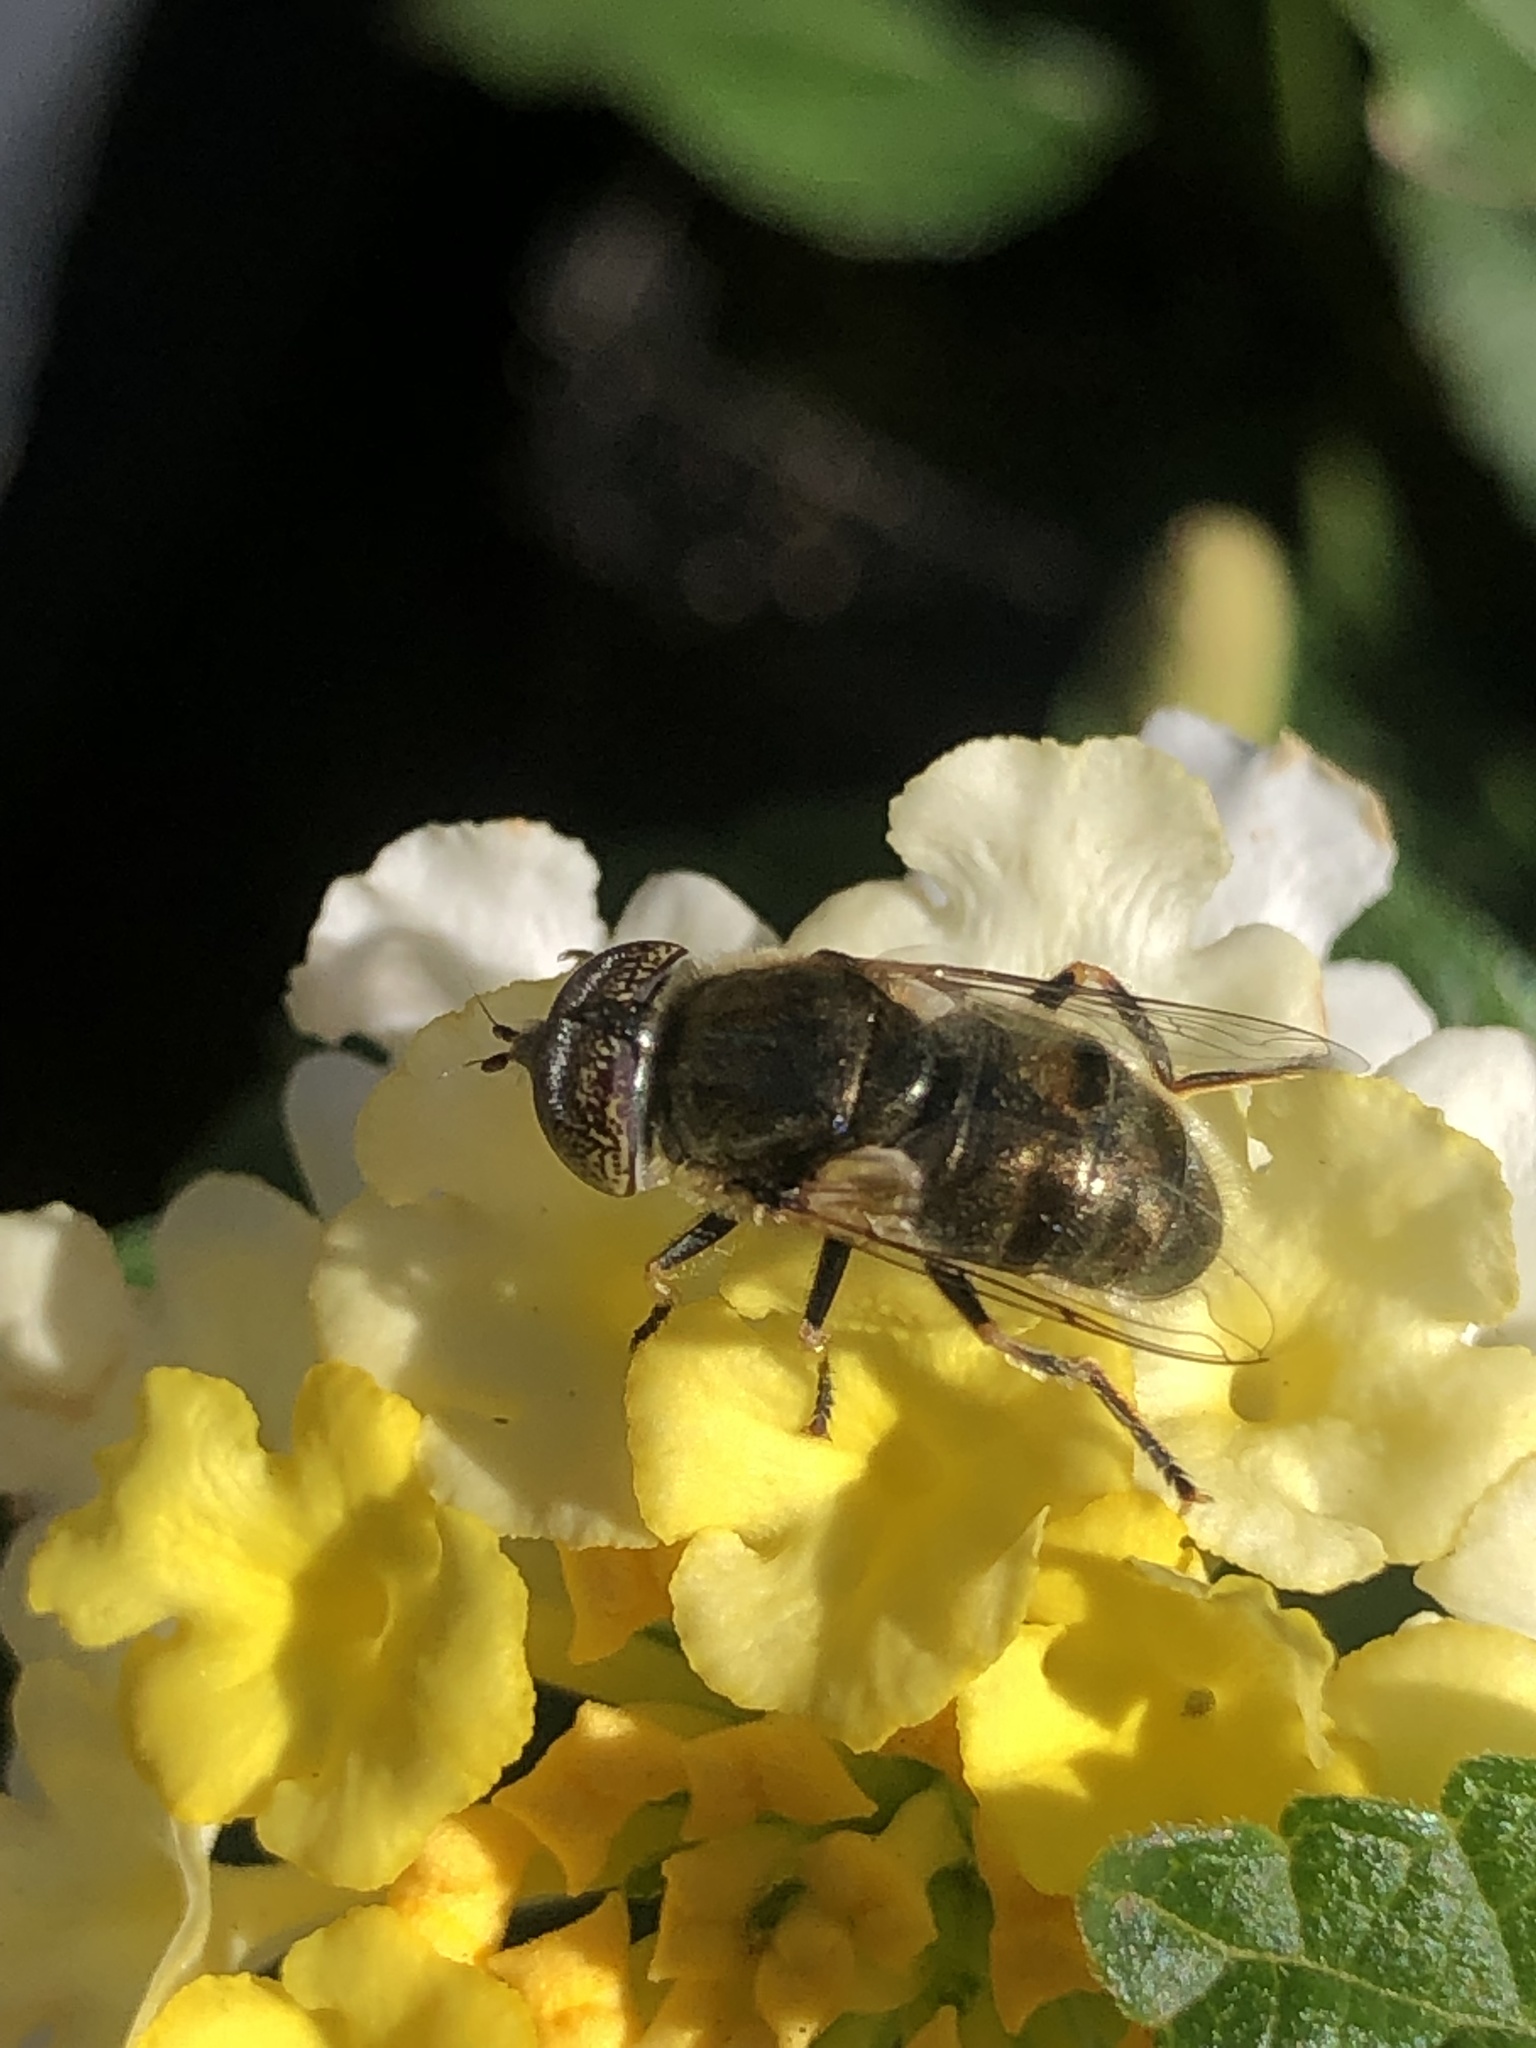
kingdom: Animalia
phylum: Arthropoda
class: Insecta
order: Diptera
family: Syrphidae
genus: Eristalinus
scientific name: Eristalinus aeneus
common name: Syrphid fly
